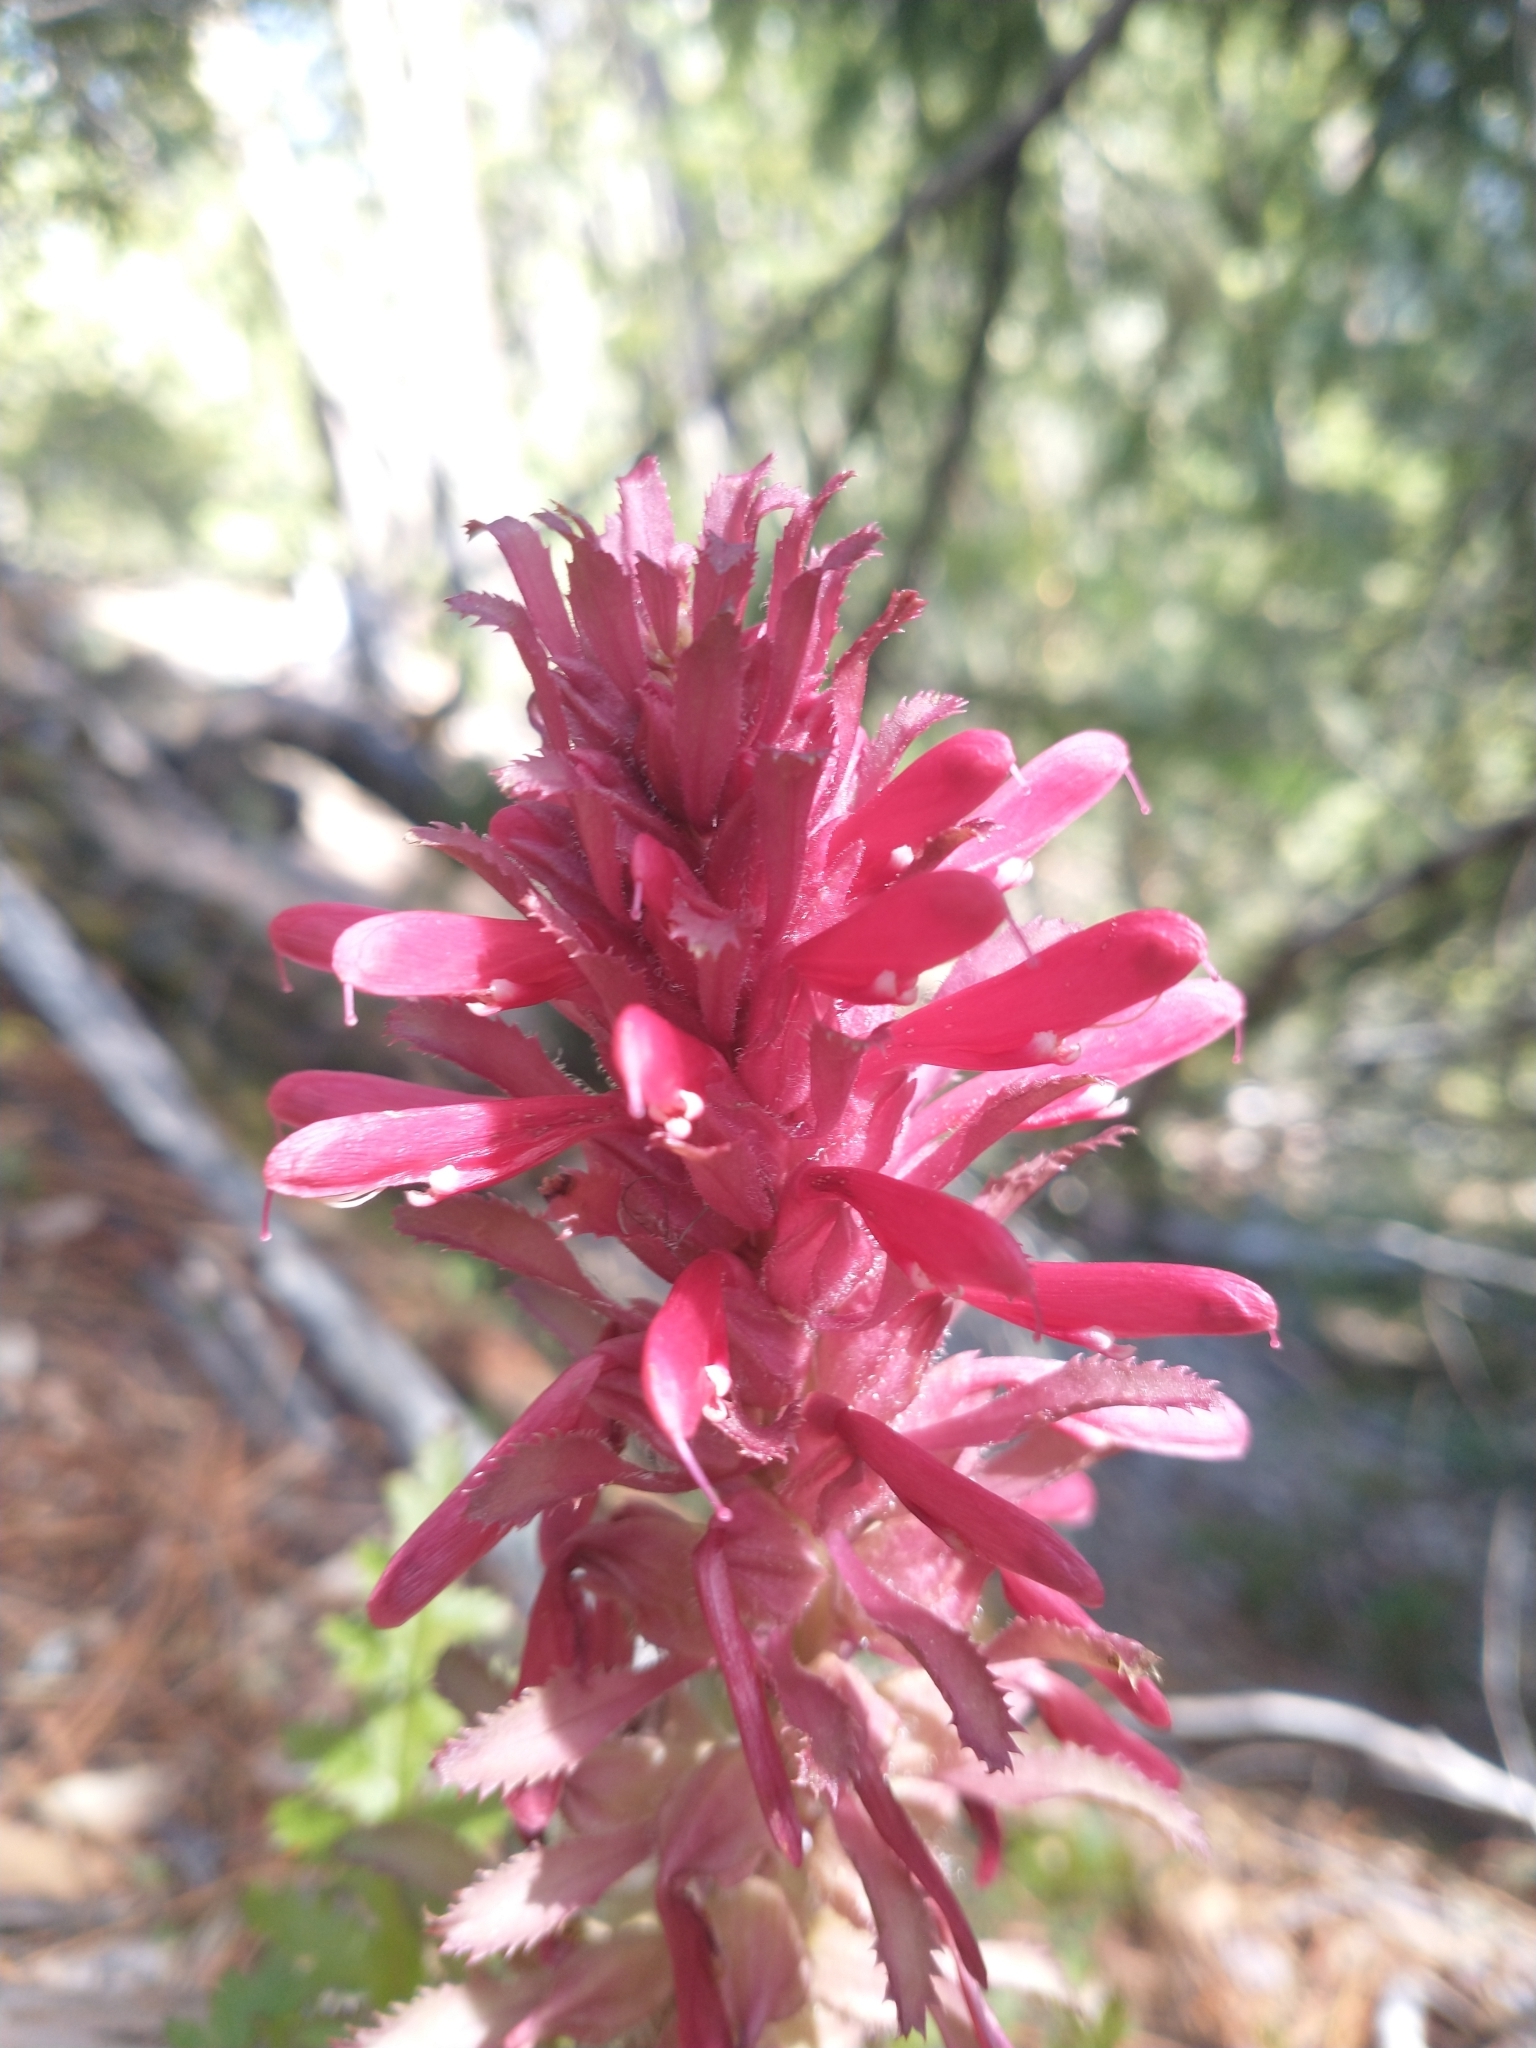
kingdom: Plantae
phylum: Tracheophyta
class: Magnoliopsida
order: Lamiales
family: Orobanchaceae
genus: Pedicularis
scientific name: Pedicularis densiflora
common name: Indian warrior
